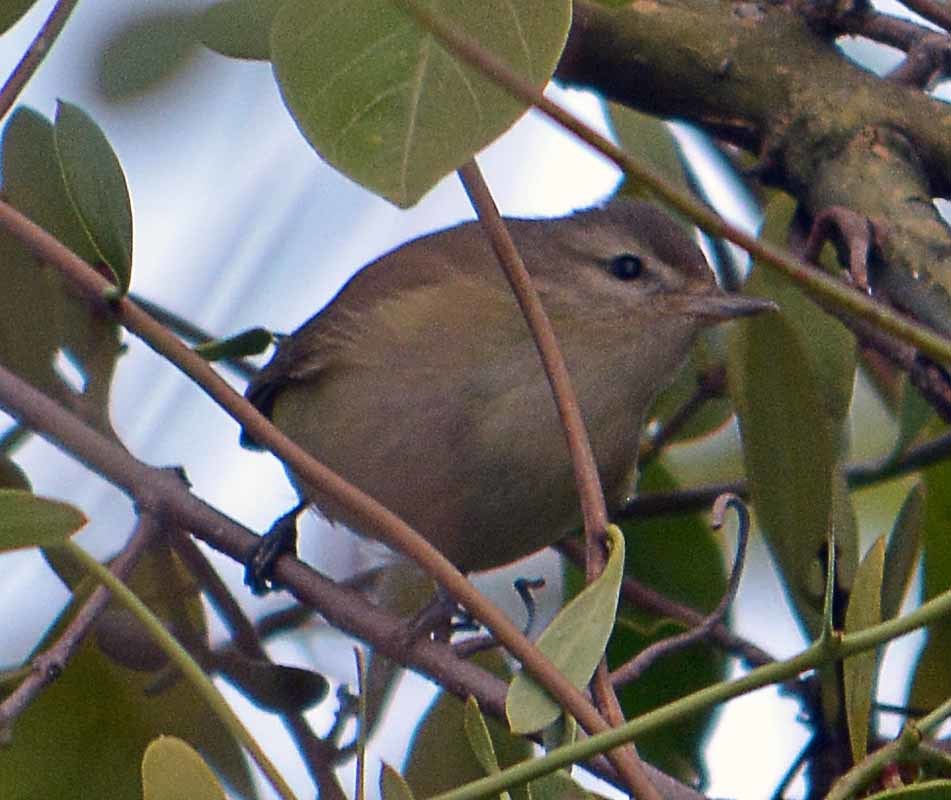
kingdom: Animalia
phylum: Chordata
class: Aves
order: Passeriformes
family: Vireonidae
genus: Vireo
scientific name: Vireo gilvus
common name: Warbling vireo
